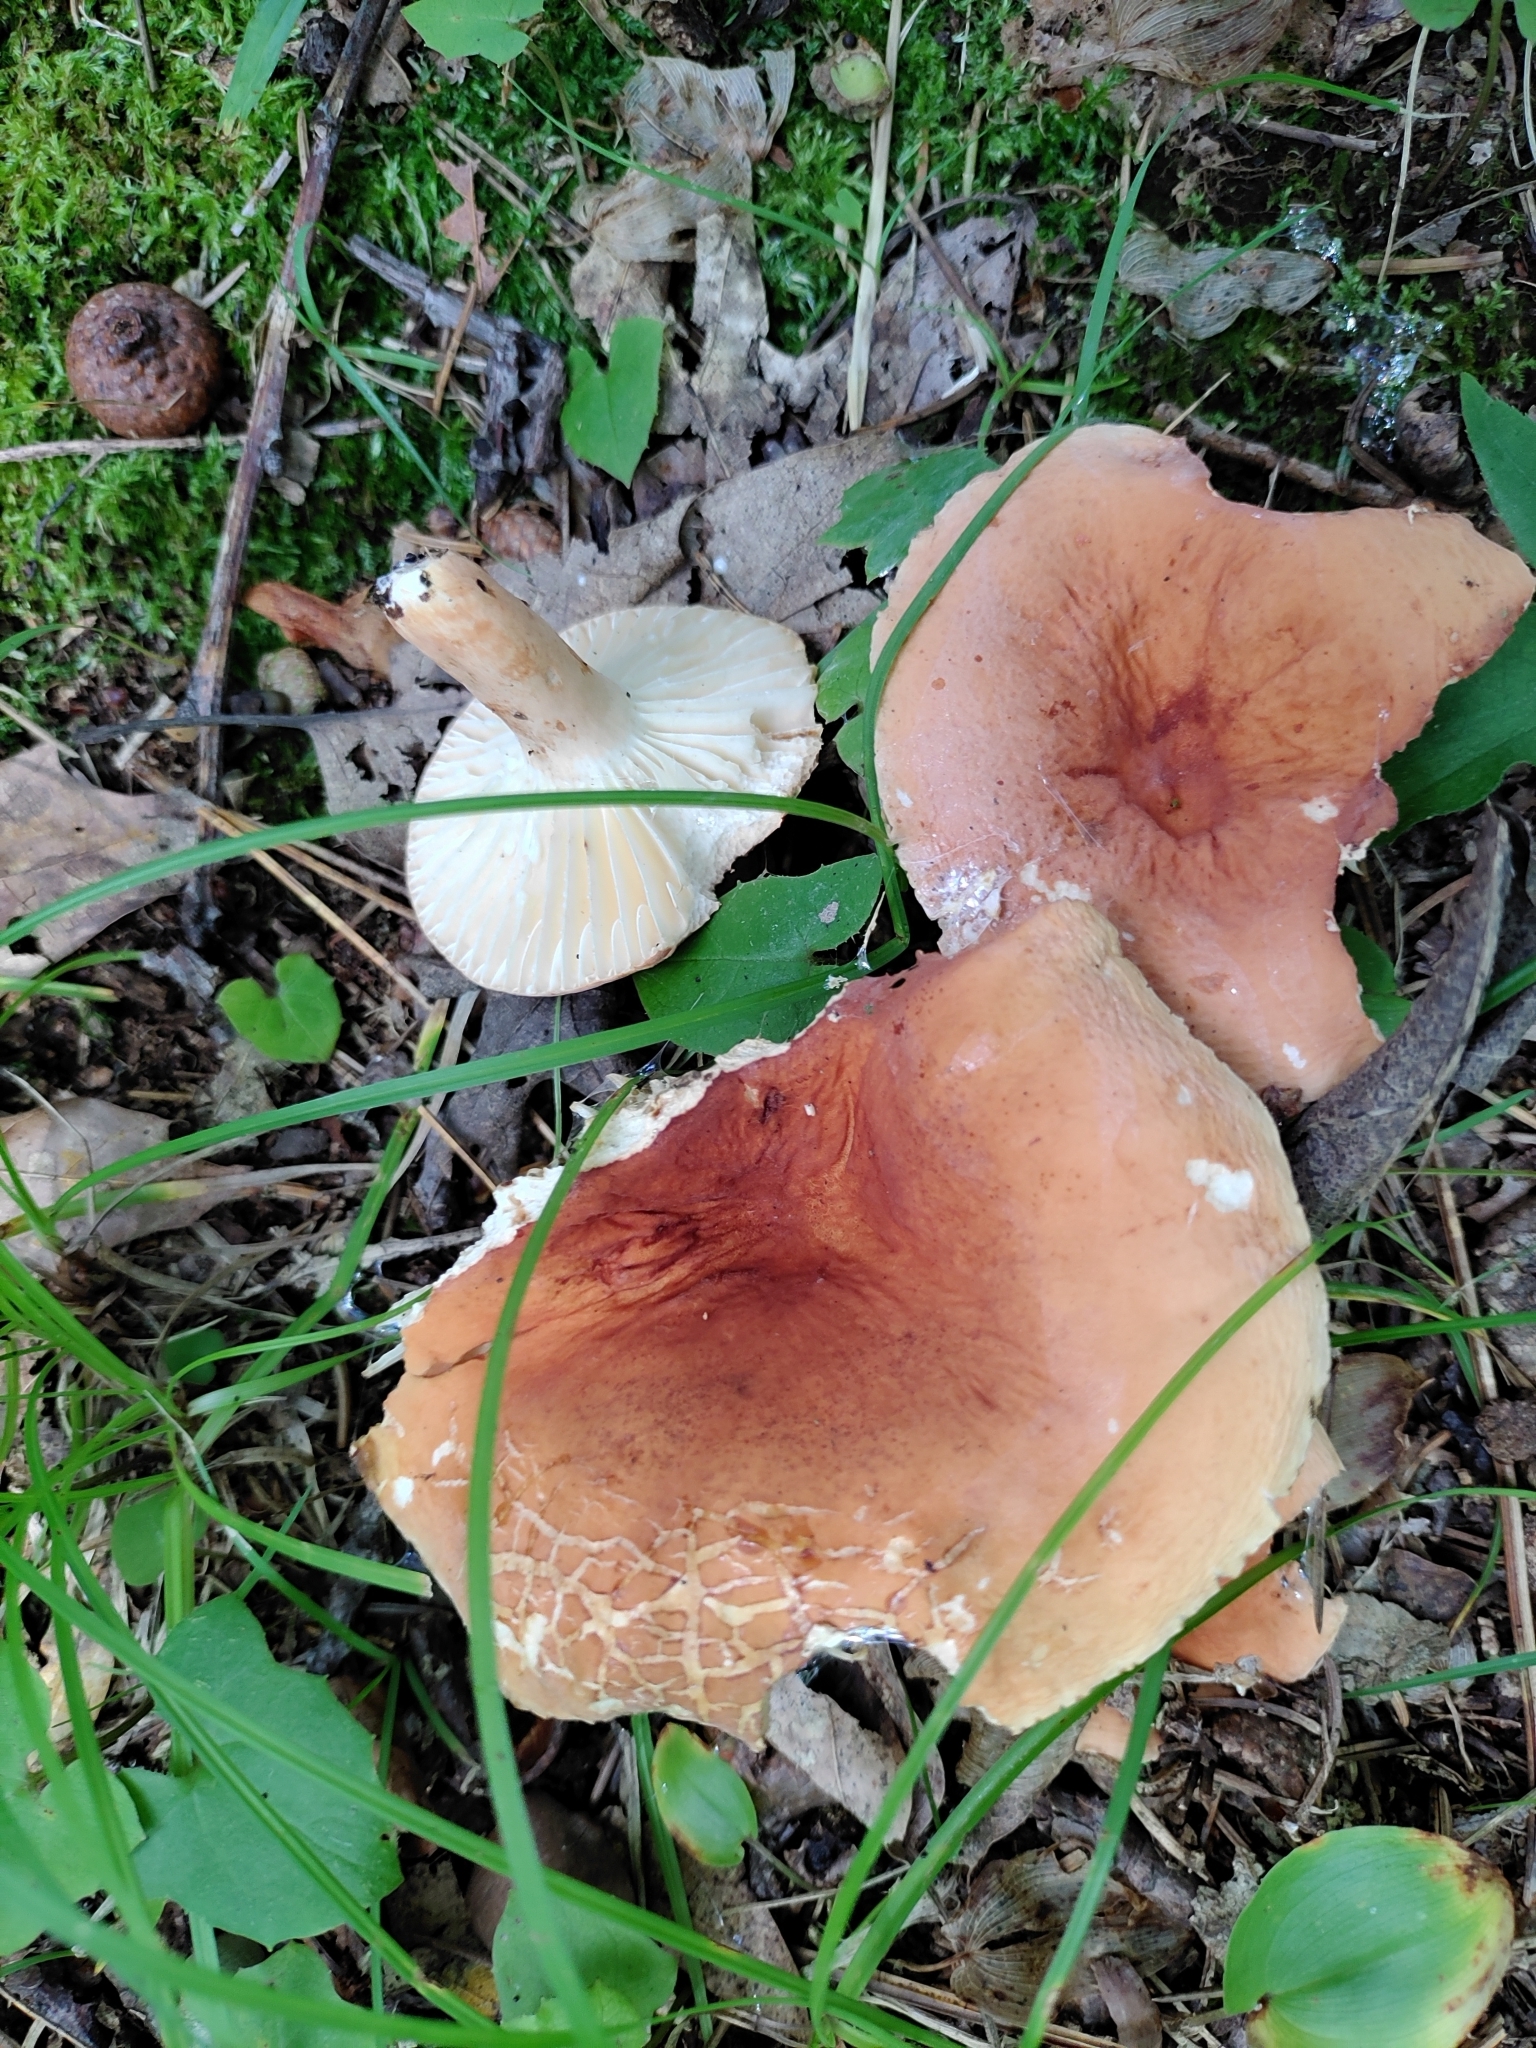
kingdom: Fungi
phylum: Basidiomycota
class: Agaricomycetes
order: Russulales
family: Russulaceae
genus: Lactarius
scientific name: Lactarius hygrophoroides
